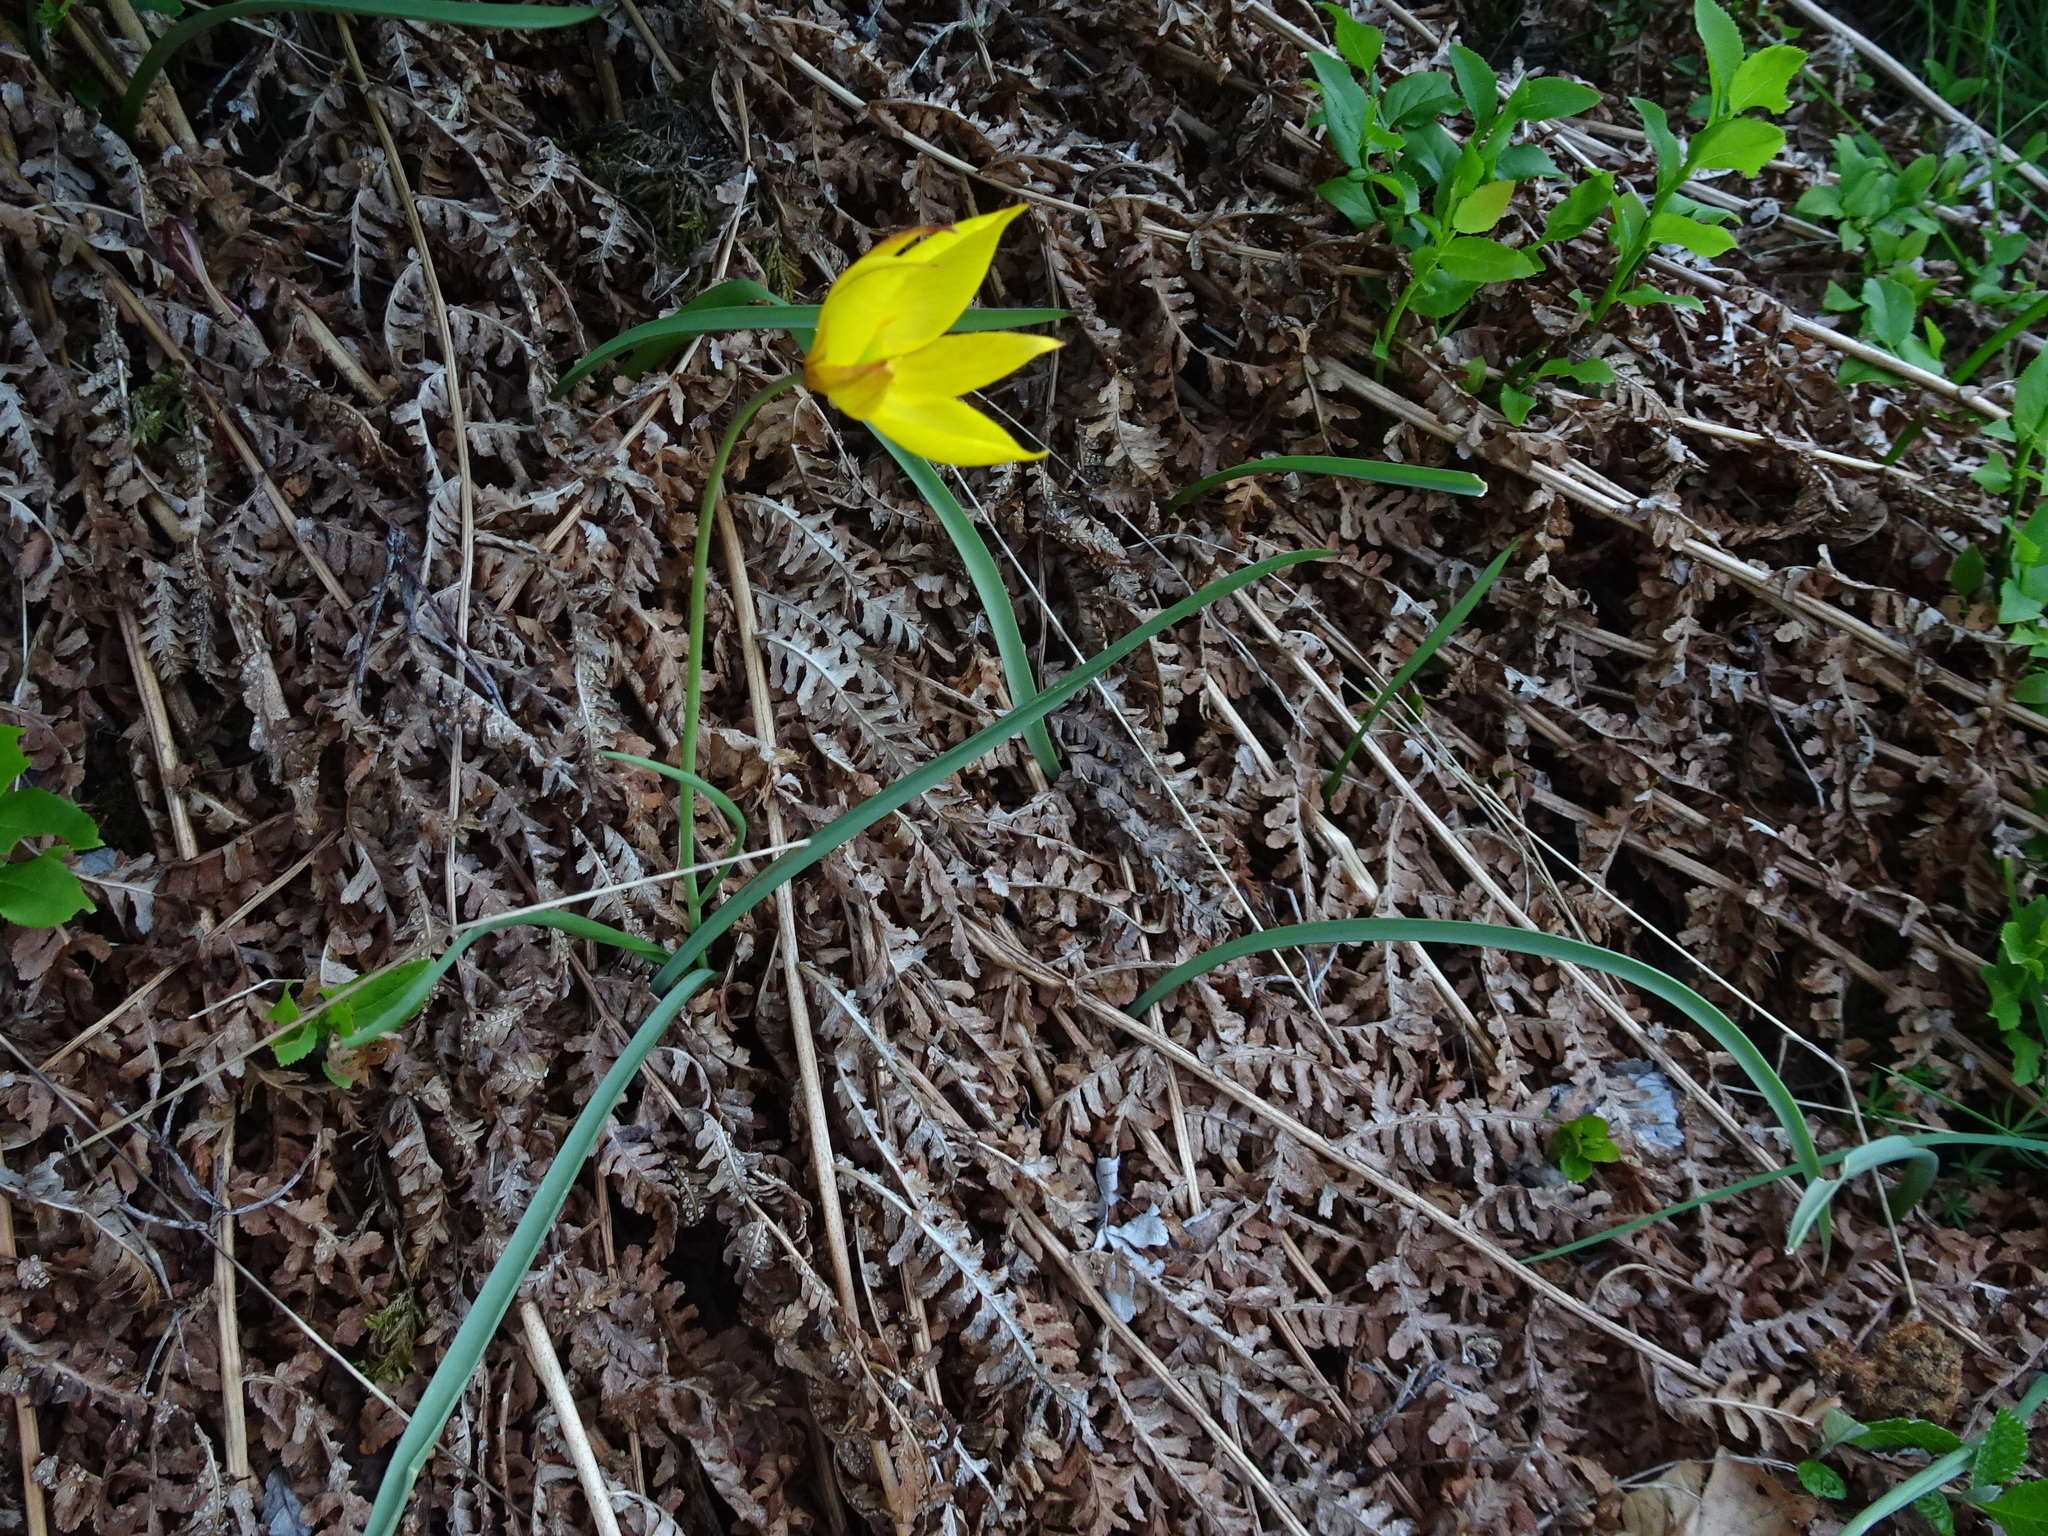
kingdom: Plantae
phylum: Tracheophyta
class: Liliopsida
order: Liliales
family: Liliaceae
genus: Tulipa
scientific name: Tulipa sylvestris
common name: Wild tulip
